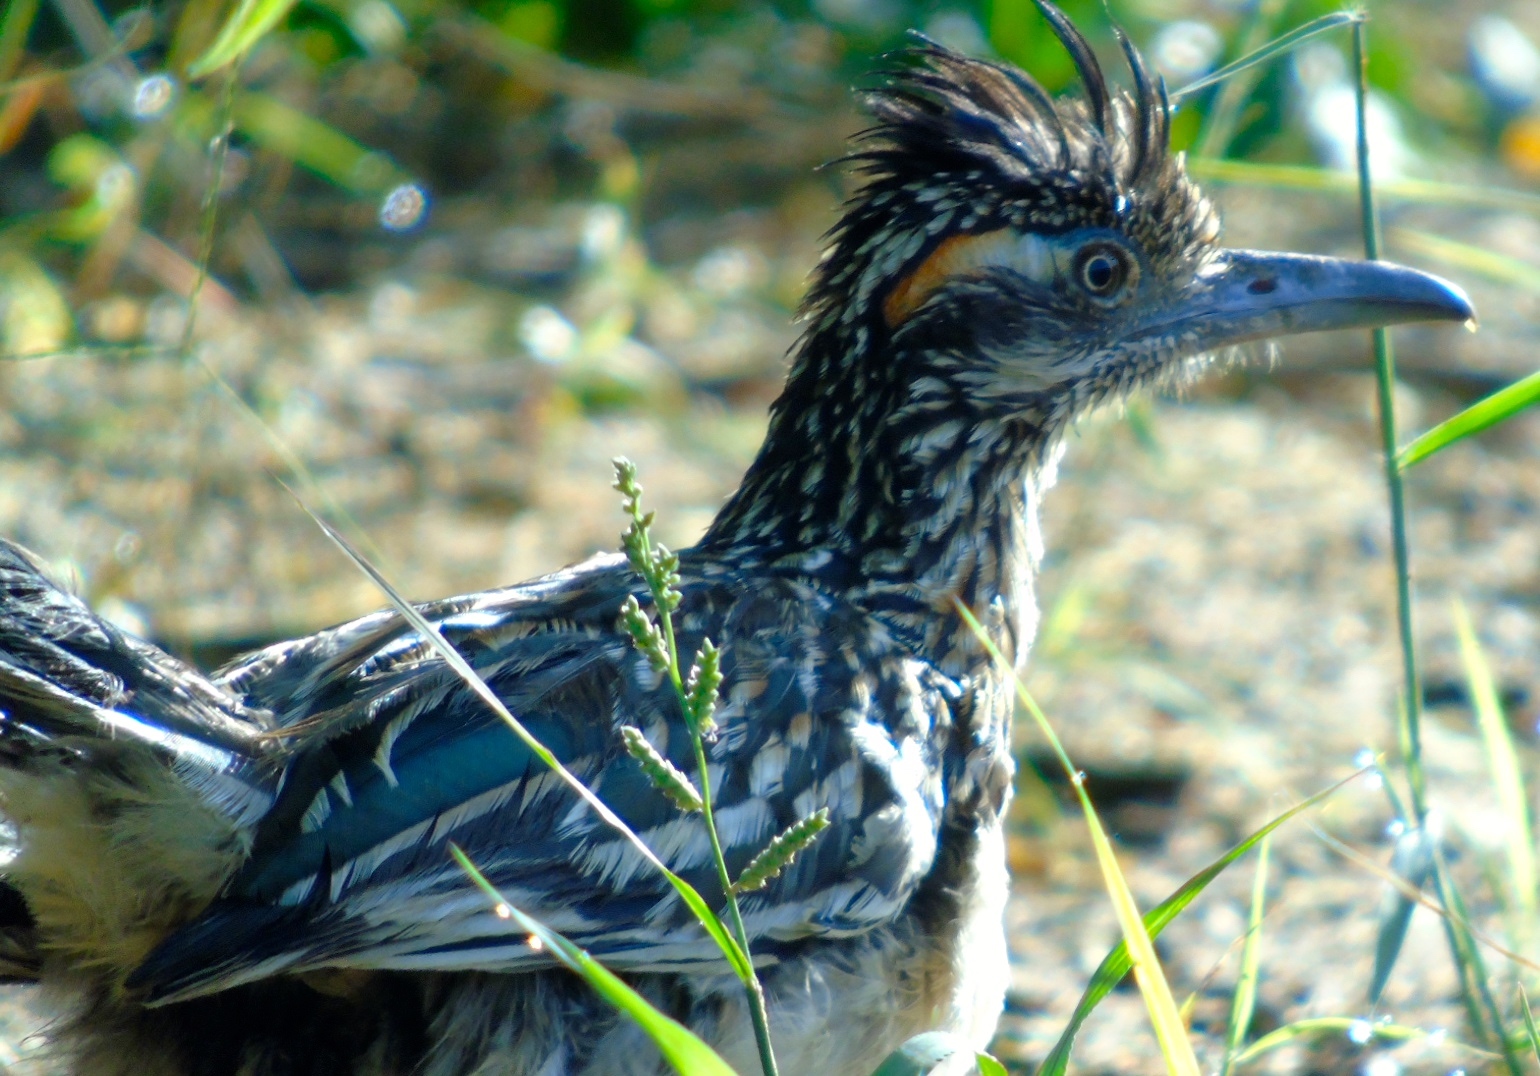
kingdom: Animalia
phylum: Chordata
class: Aves
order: Cuculiformes
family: Cuculidae
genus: Geococcyx
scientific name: Geococcyx californianus
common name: Greater roadrunner
